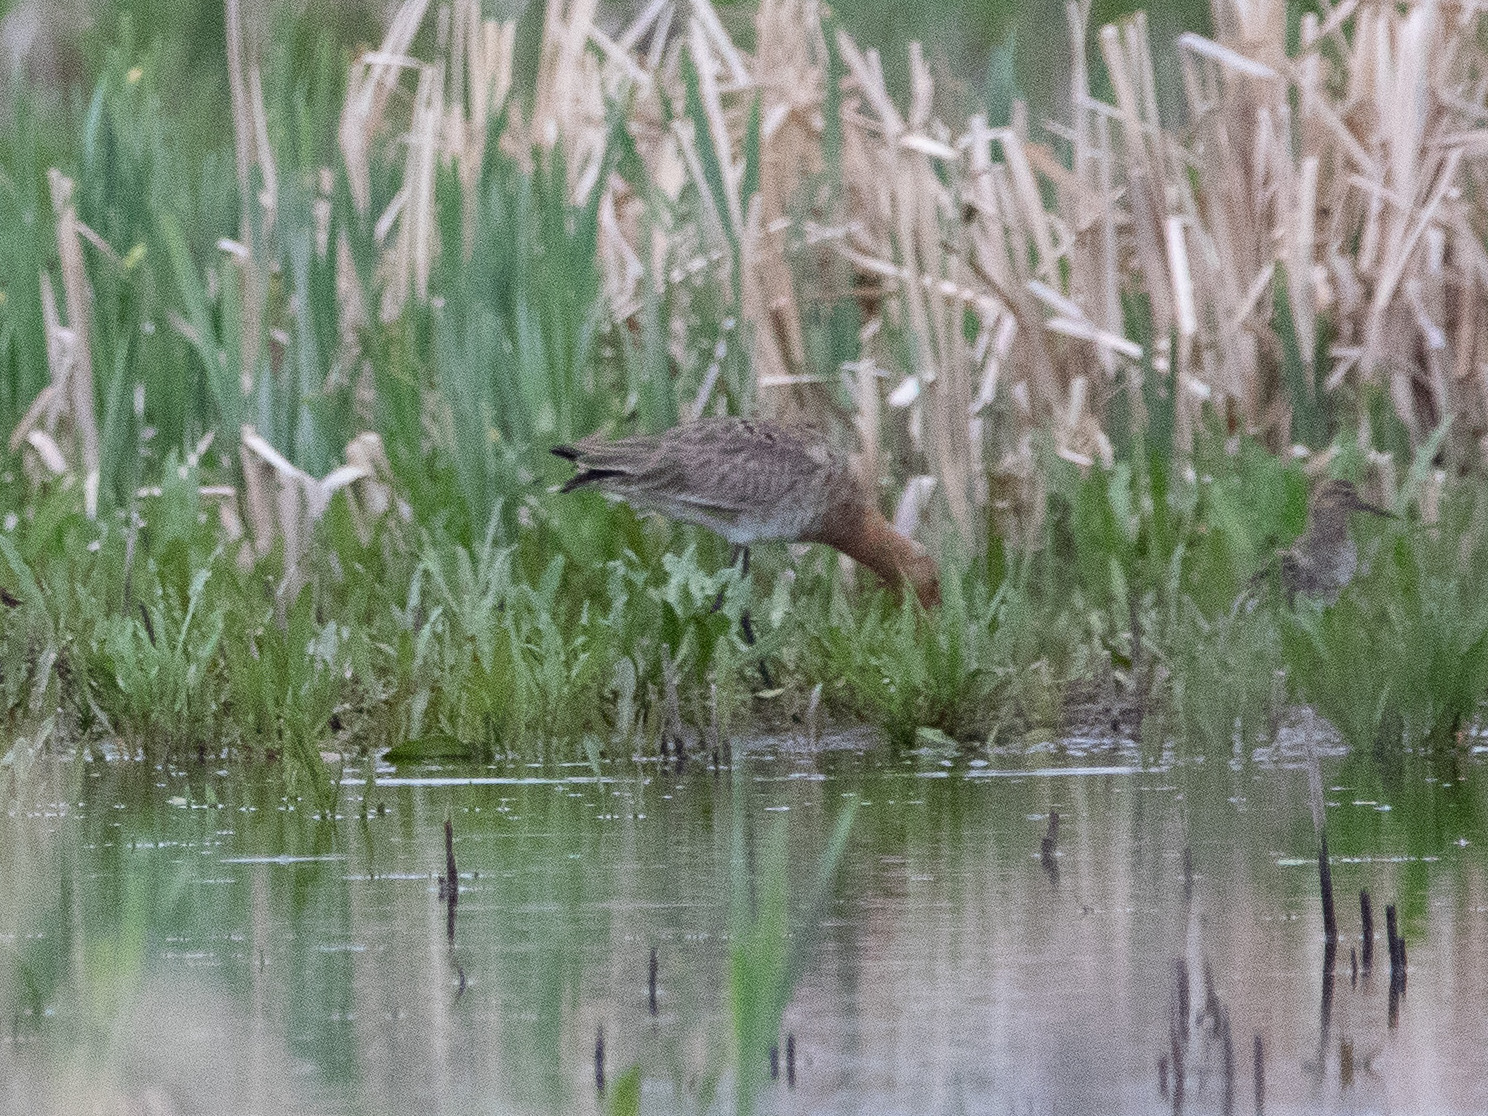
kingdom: Animalia
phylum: Chordata
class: Aves
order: Charadriiformes
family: Scolopacidae
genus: Limosa
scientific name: Limosa limosa
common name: Black-tailed godwit
